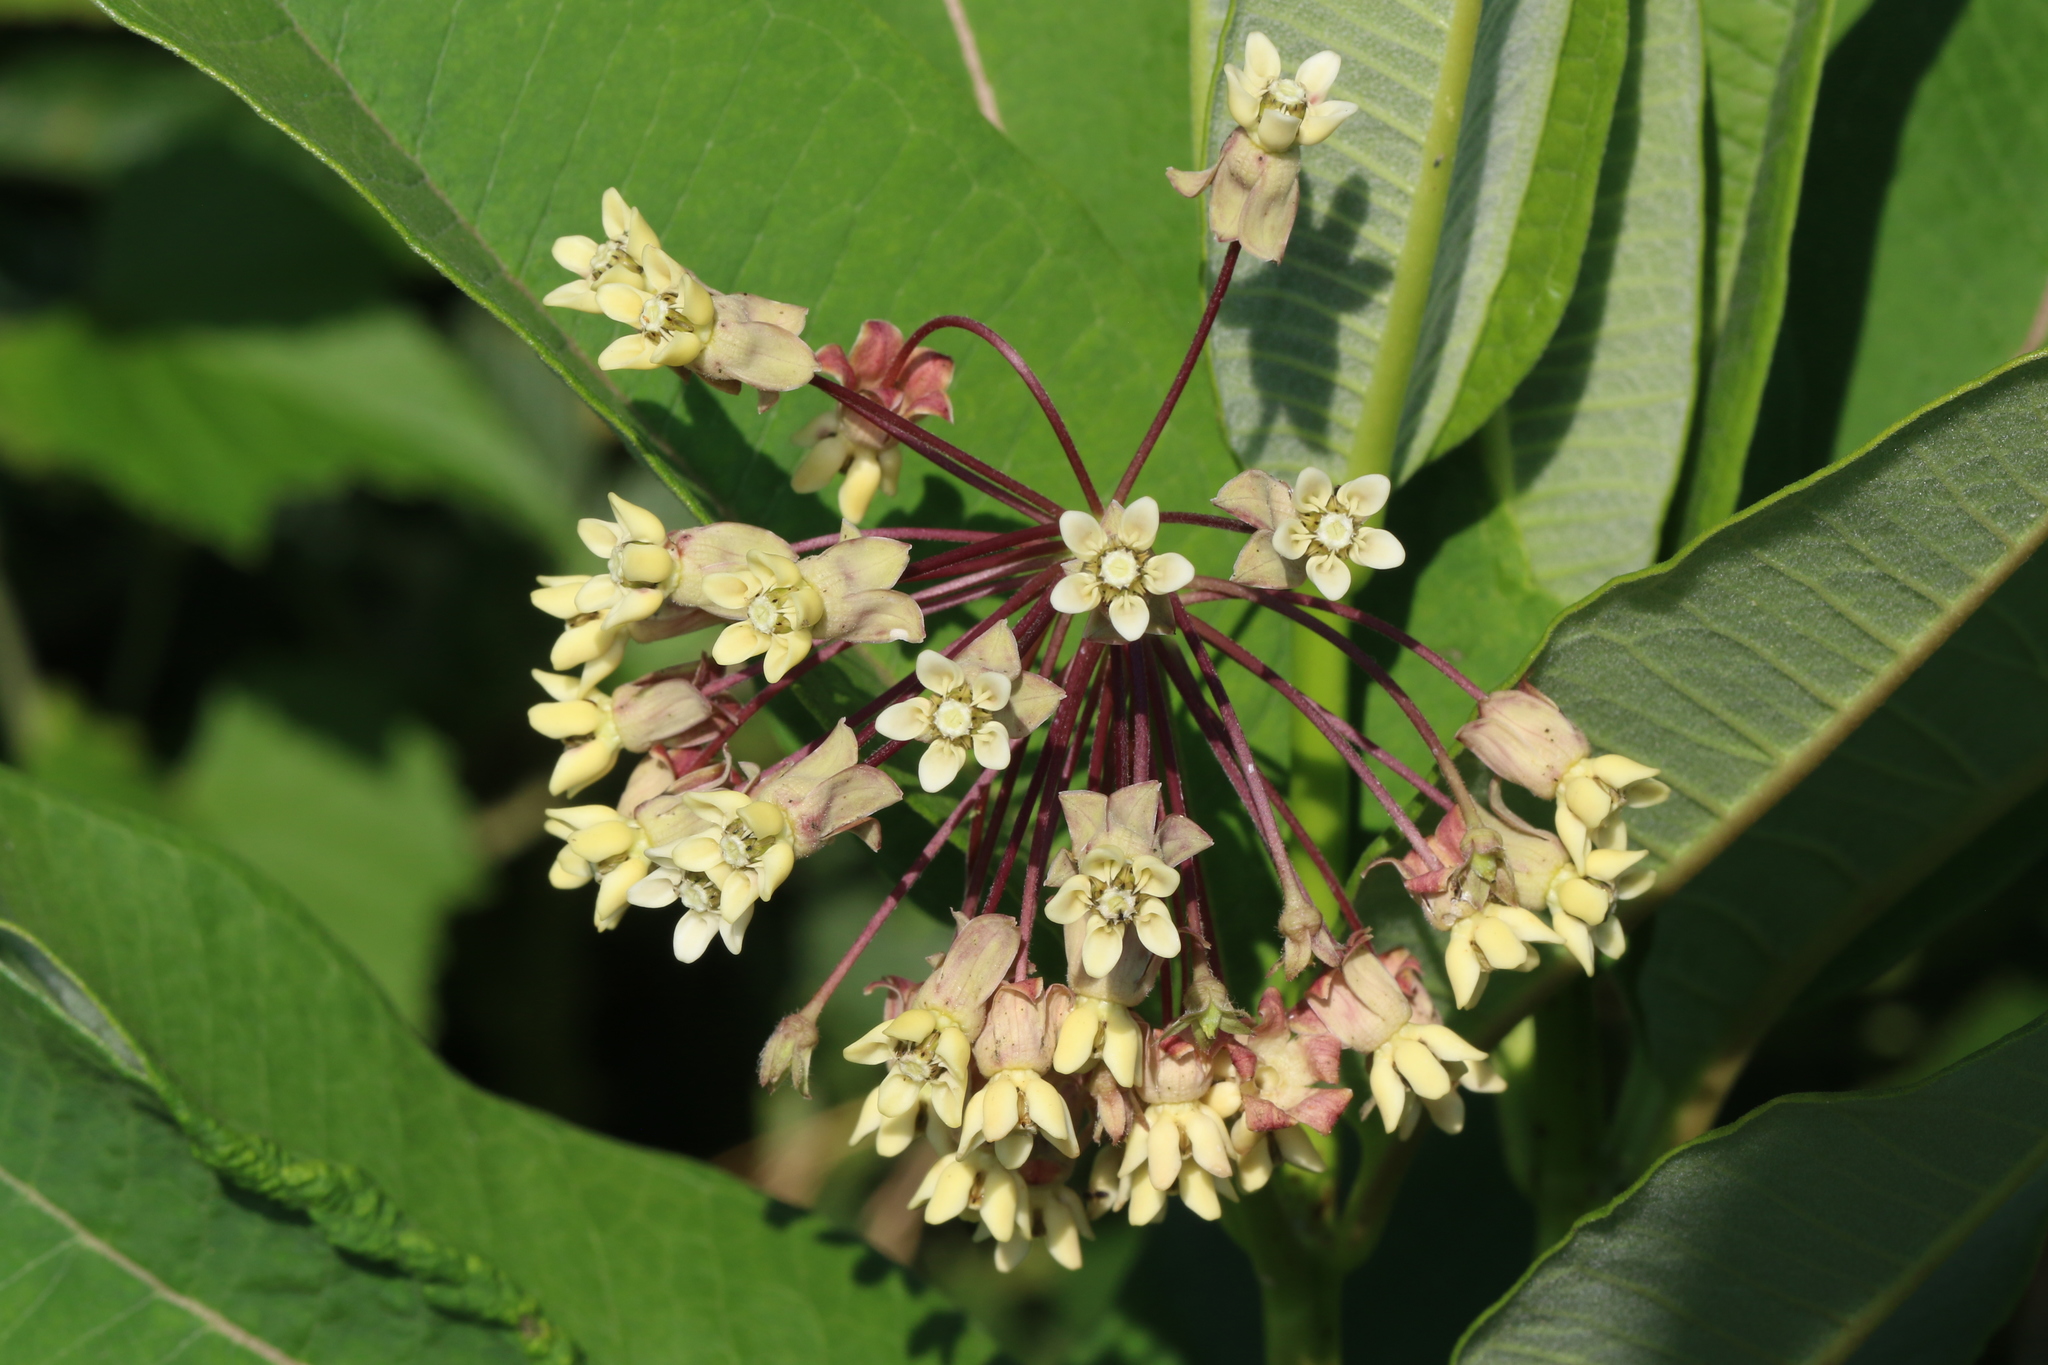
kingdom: Plantae
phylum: Tracheophyta
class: Magnoliopsida
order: Gentianales
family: Apocynaceae
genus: Asclepias
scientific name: Asclepias syriaca
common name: Common milkweed
